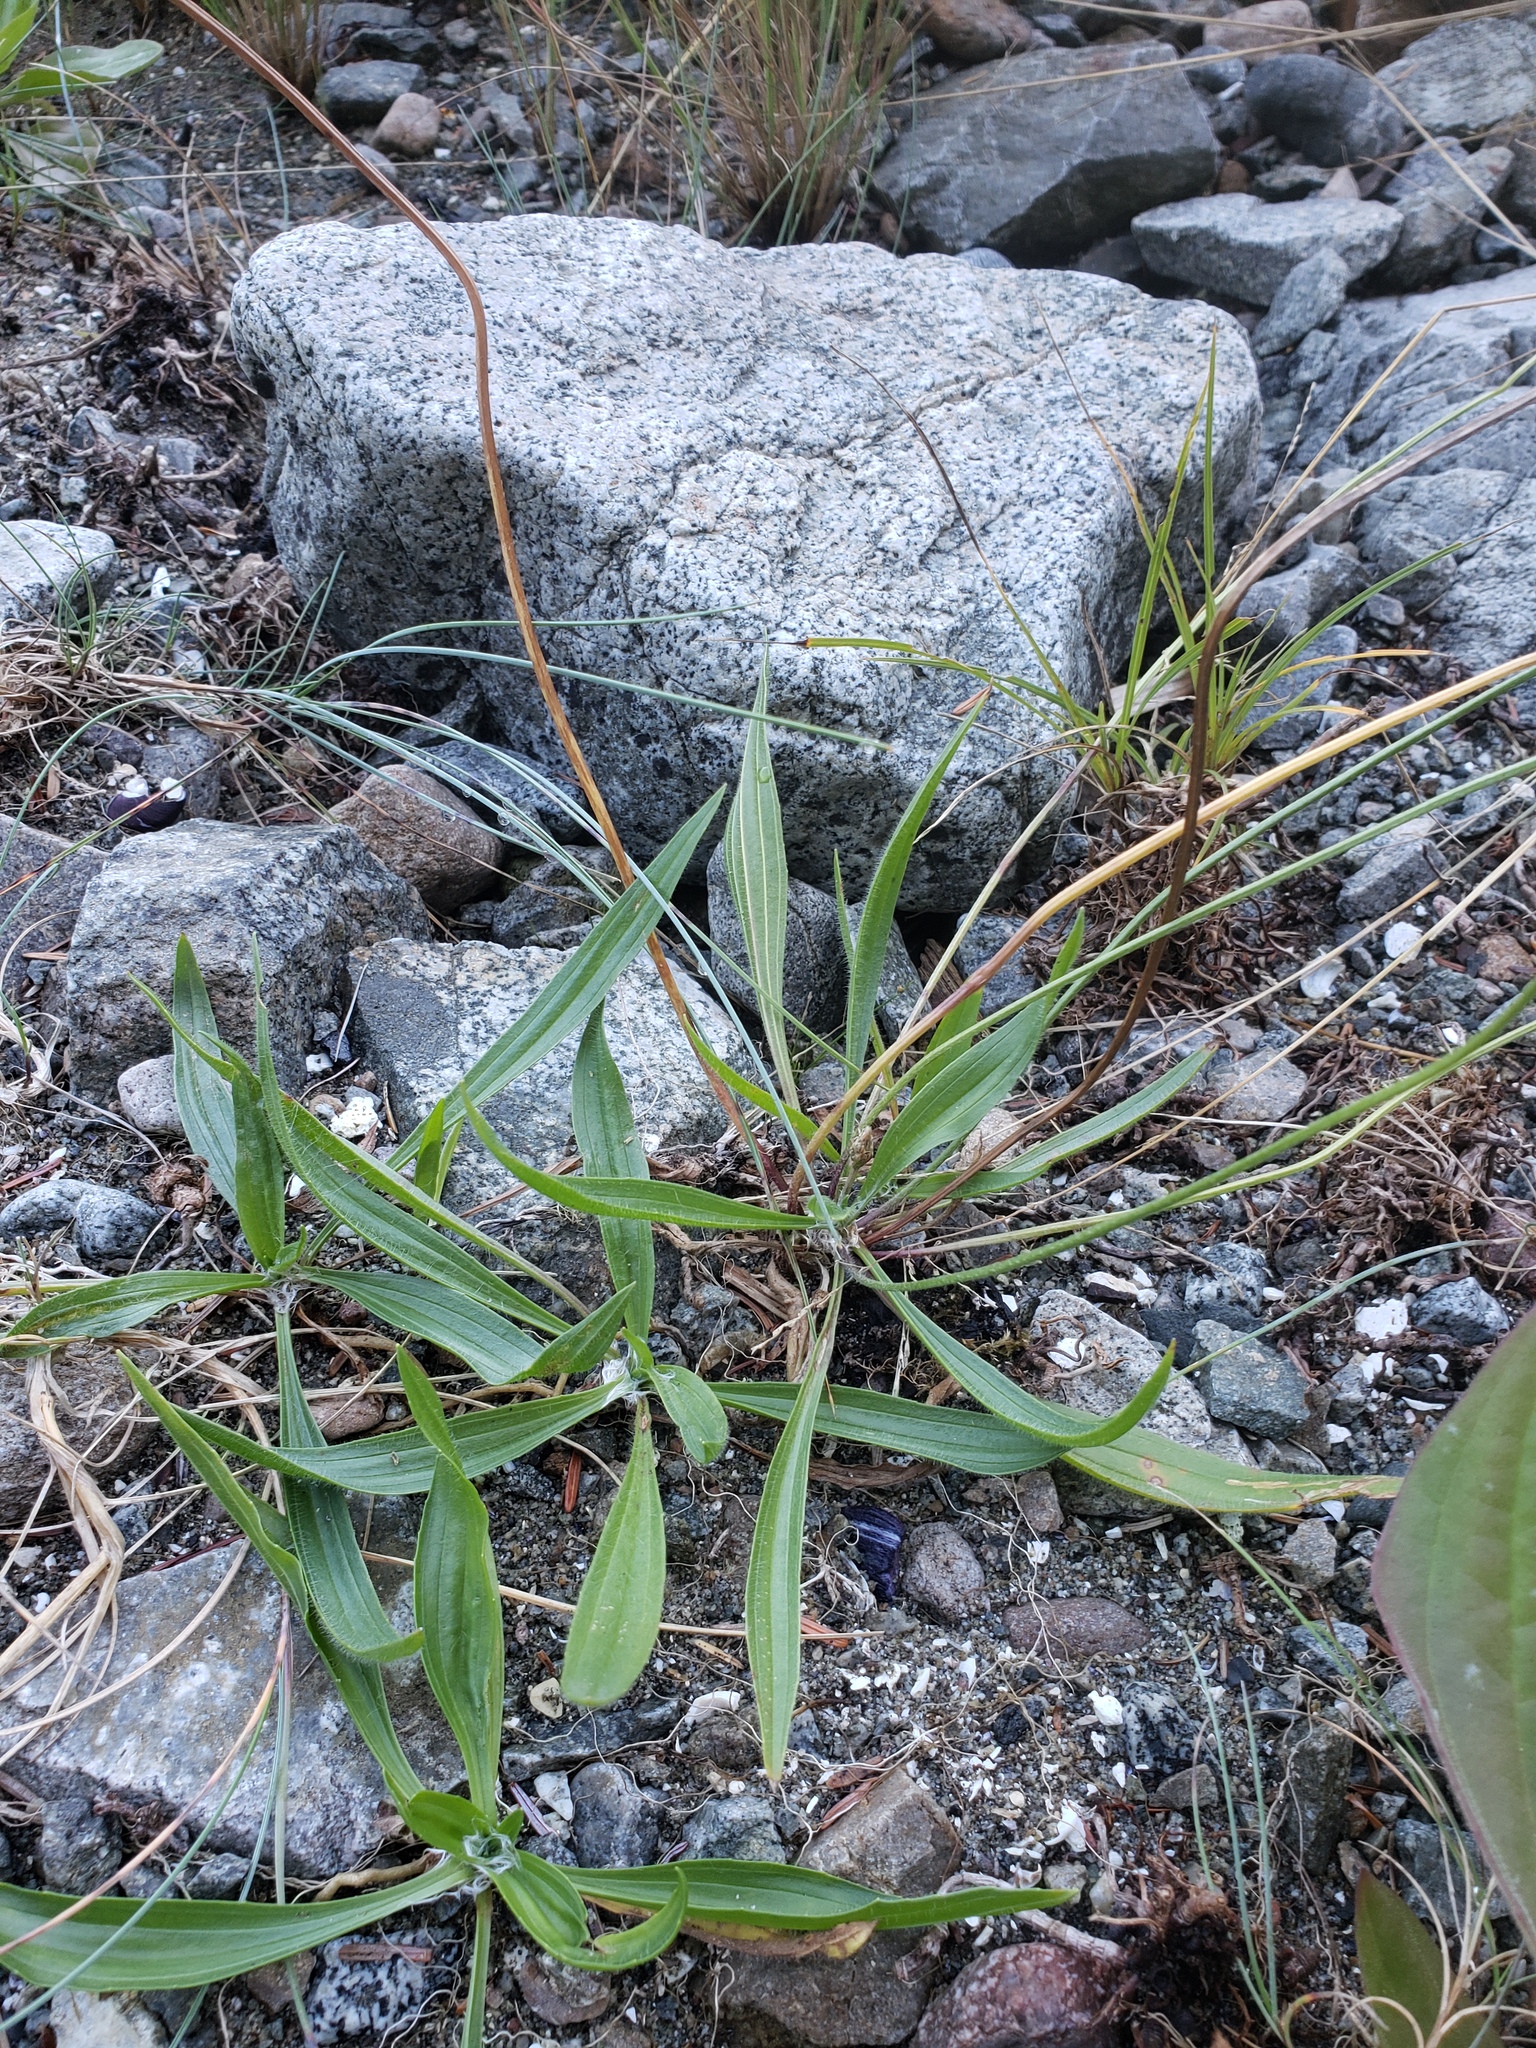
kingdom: Plantae
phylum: Tracheophyta
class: Magnoliopsida
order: Lamiales
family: Plantaginaceae
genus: Plantago
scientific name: Plantago lanceolata
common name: Ribwort plantain
